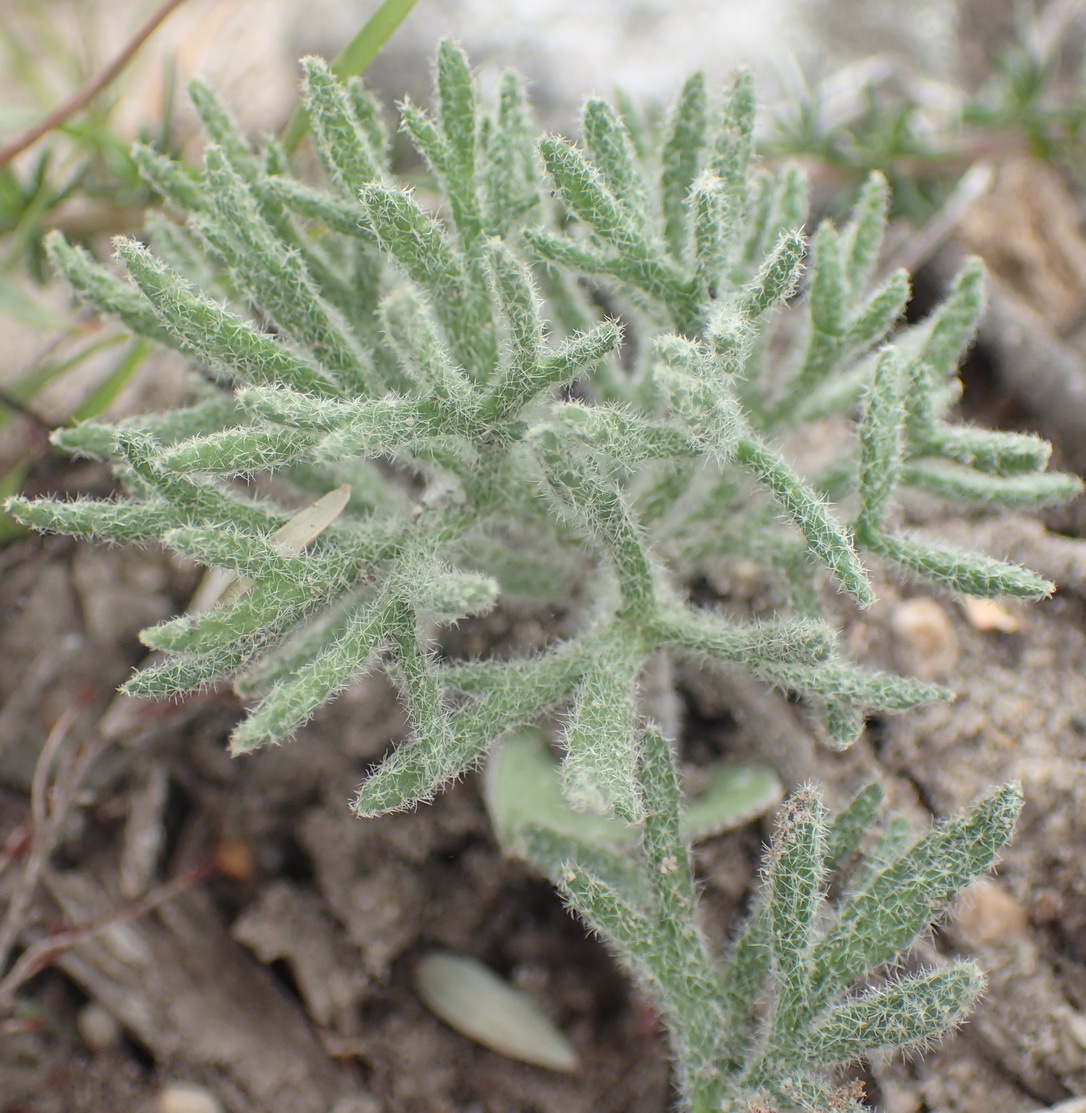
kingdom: Plantae
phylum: Tracheophyta
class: Liliopsida
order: Asparagales
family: Asparagaceae
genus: Eriospermum
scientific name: Eriospermum dregei
